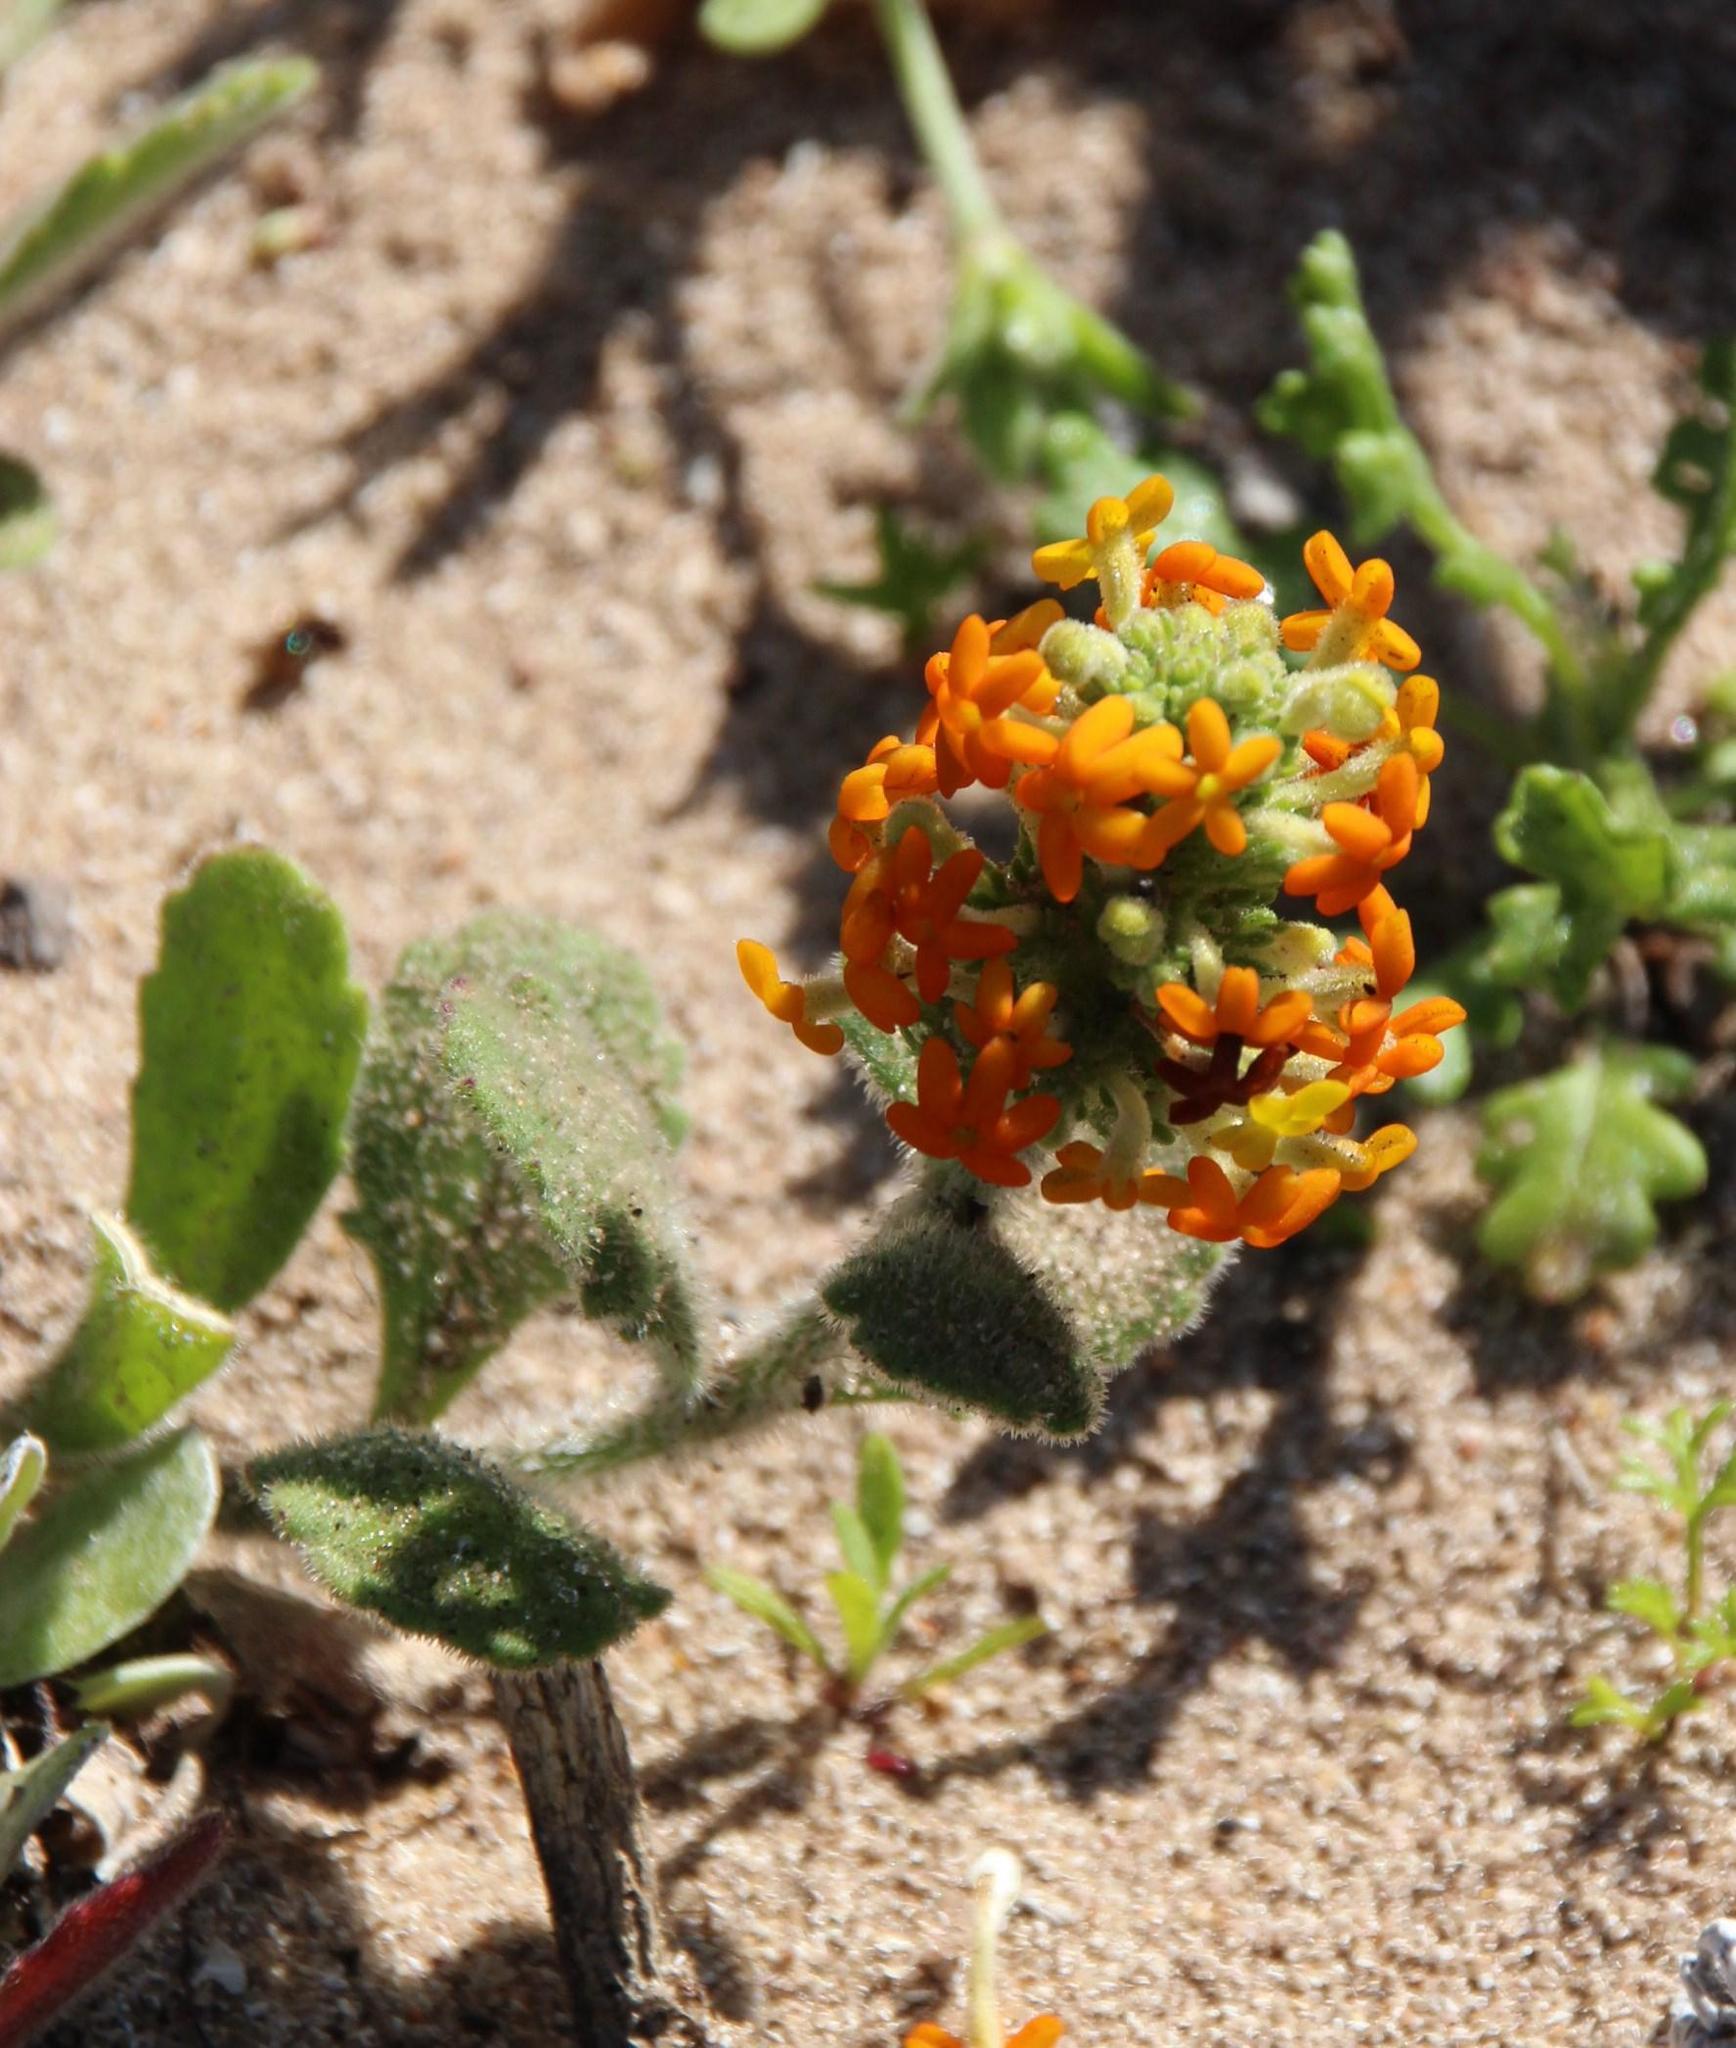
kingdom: Plantae
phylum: Tracheophyta
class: Magnoliopsida
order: Lamiales
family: Scrophulariaceae
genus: Manulea
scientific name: Manulea tomentosa
